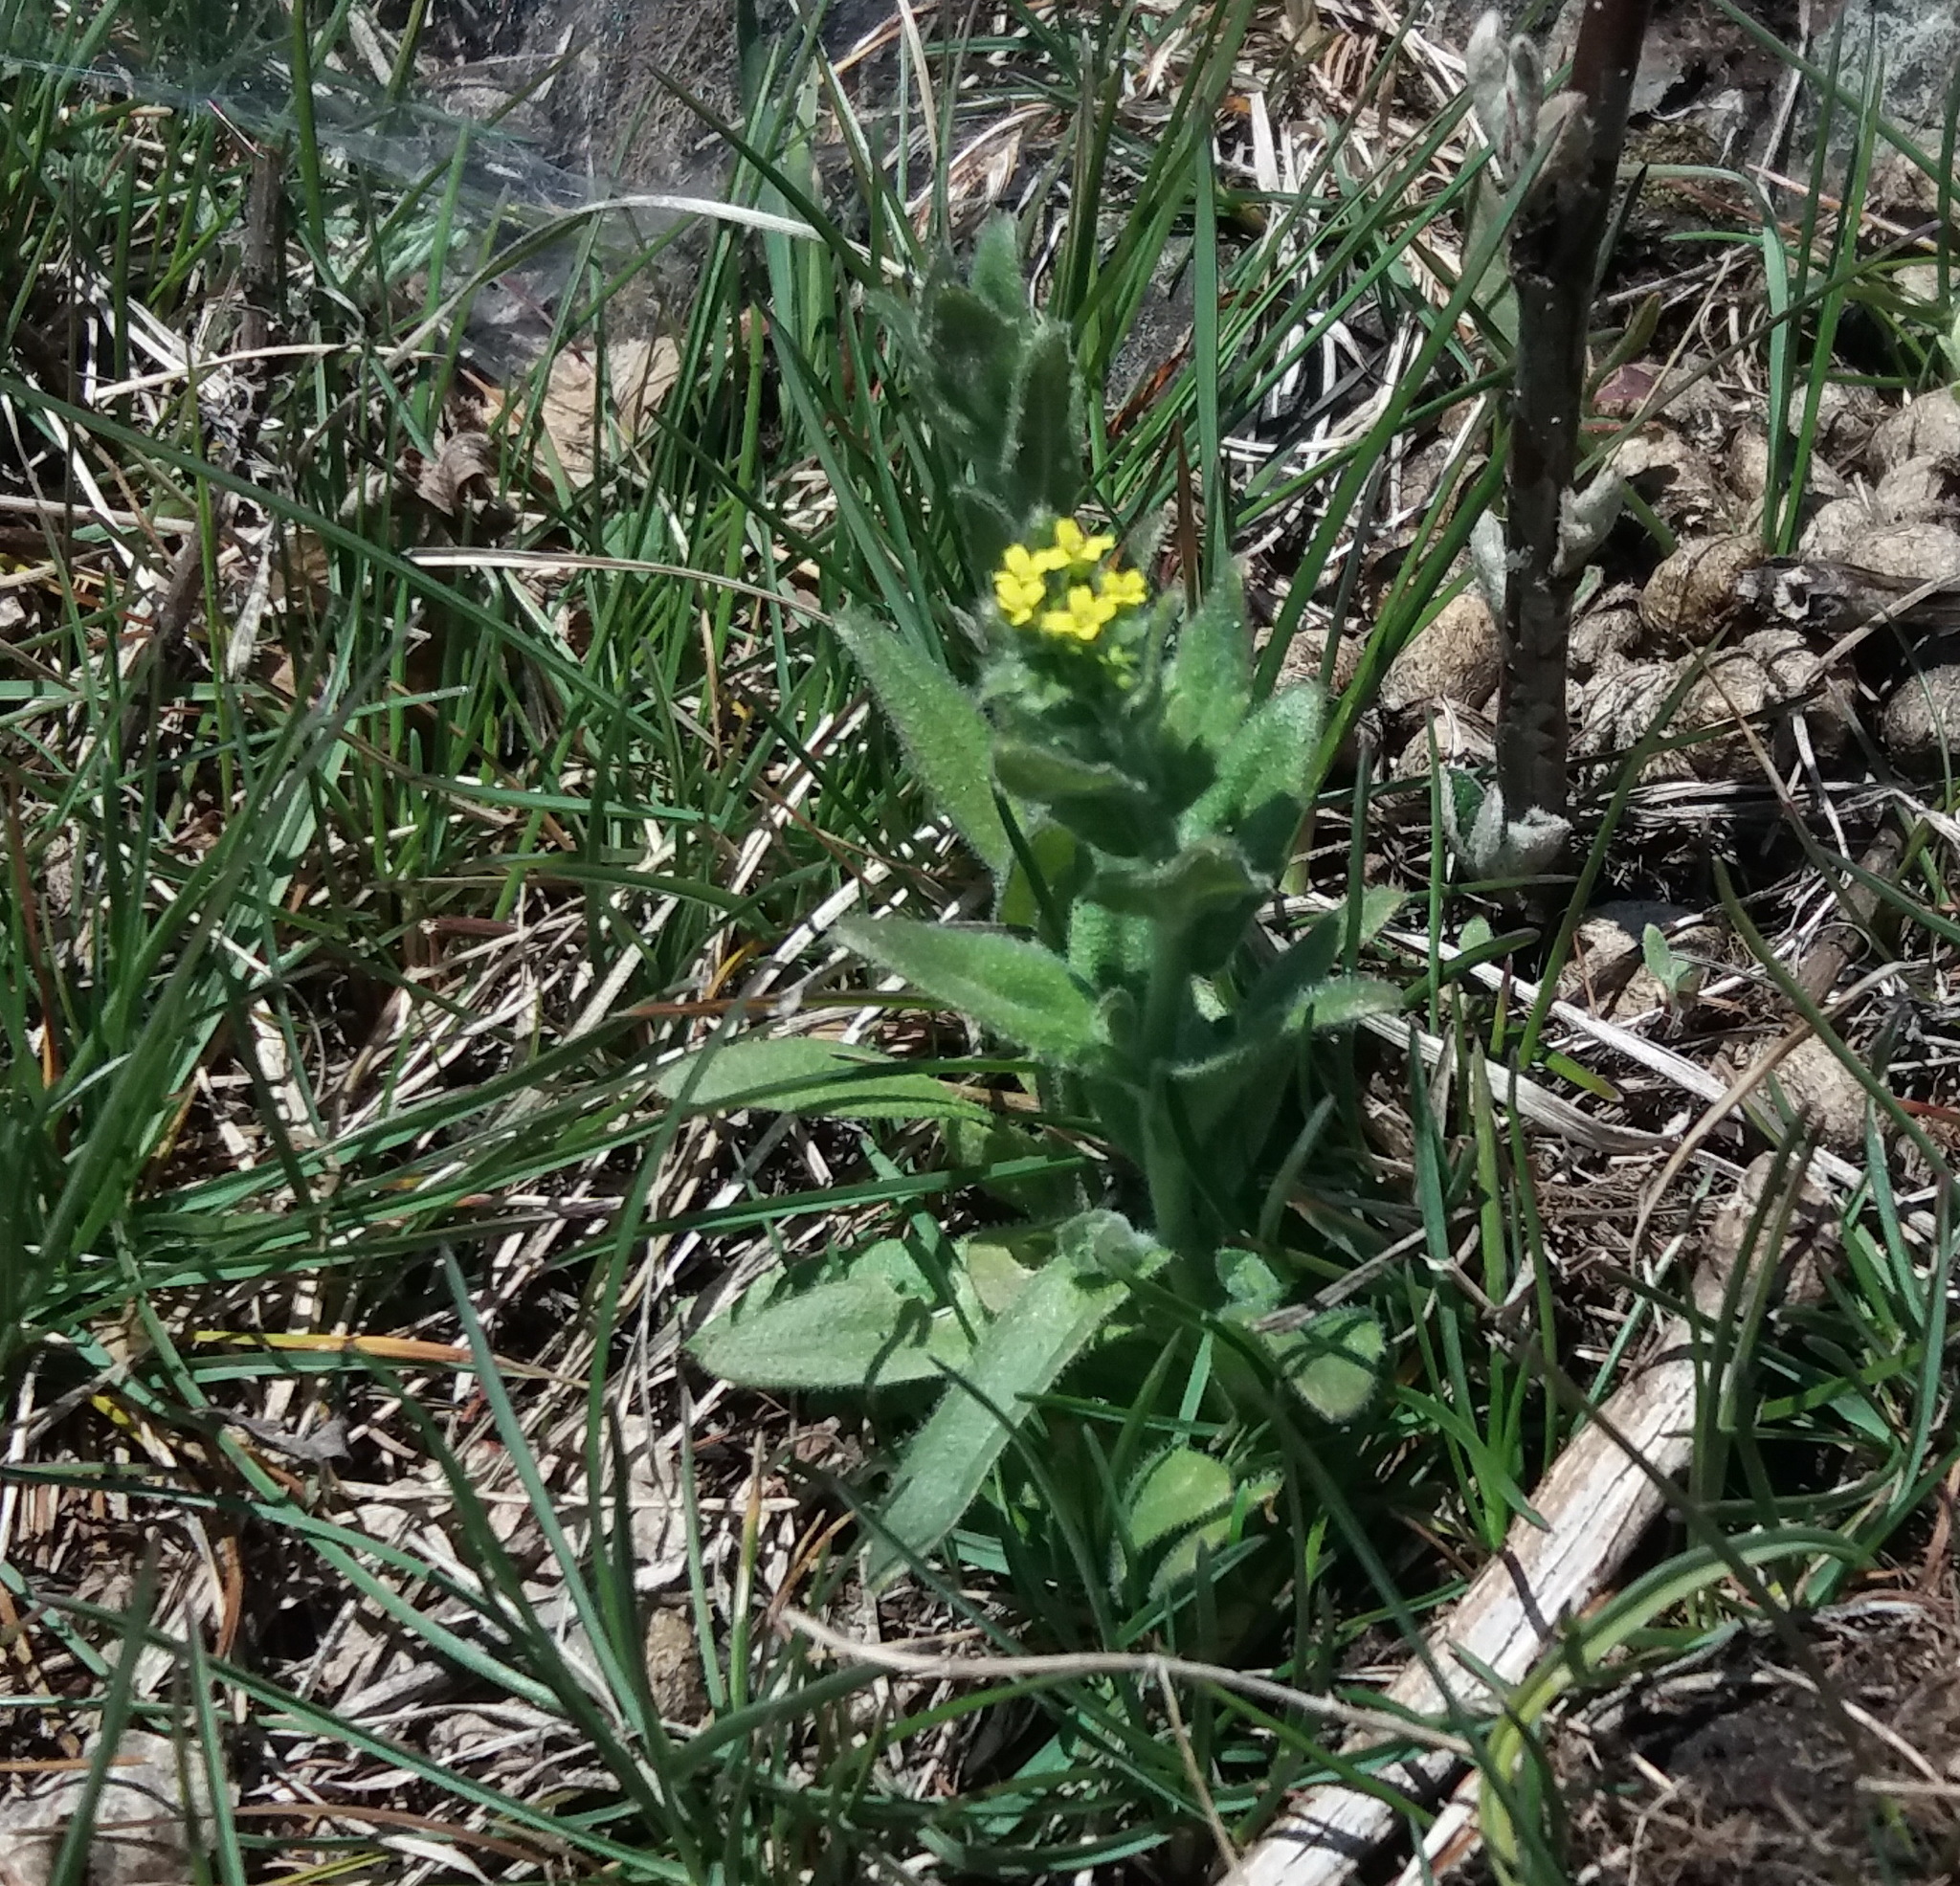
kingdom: Plantae
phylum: Tracheophyta
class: Magnoliopsida
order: Brassicales
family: Brassicaceae
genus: Draba
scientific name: Draba nemorosa
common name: Wood whitlow-grass
